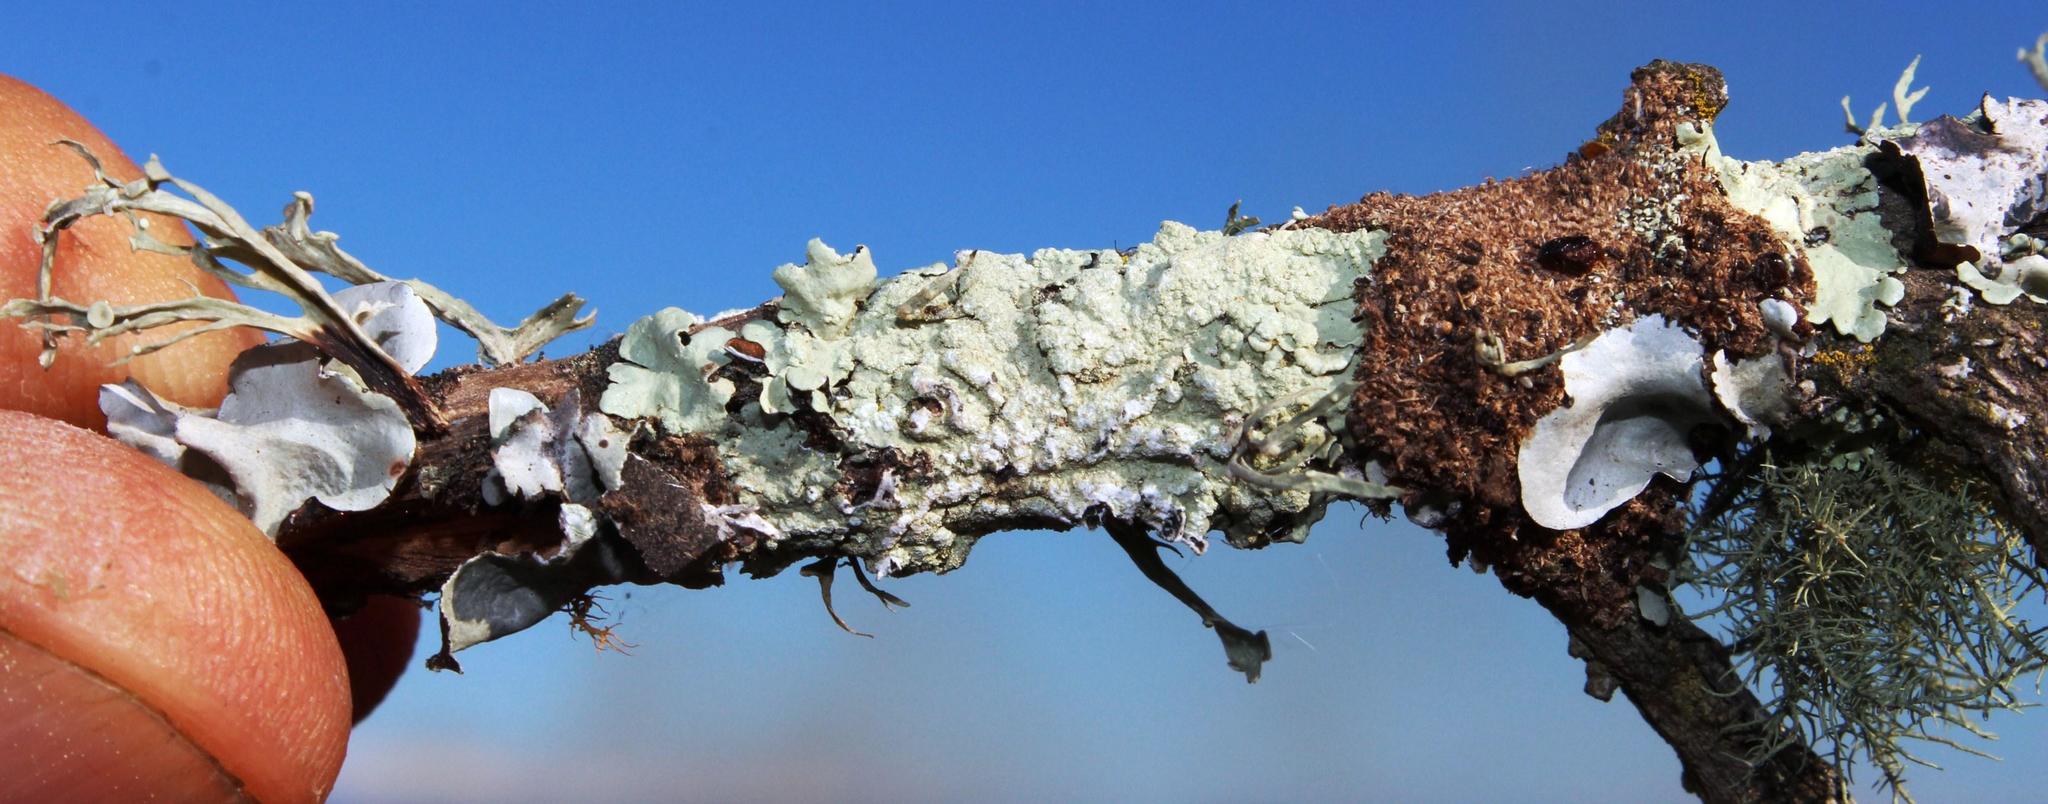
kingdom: Fungi
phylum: Ascomycota
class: Lecanoromycetes
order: Lecanorales
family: Parmeliaceae
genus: Flavoparmelia
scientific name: Flavoparmelia caperata
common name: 40-mile per hour lichen
